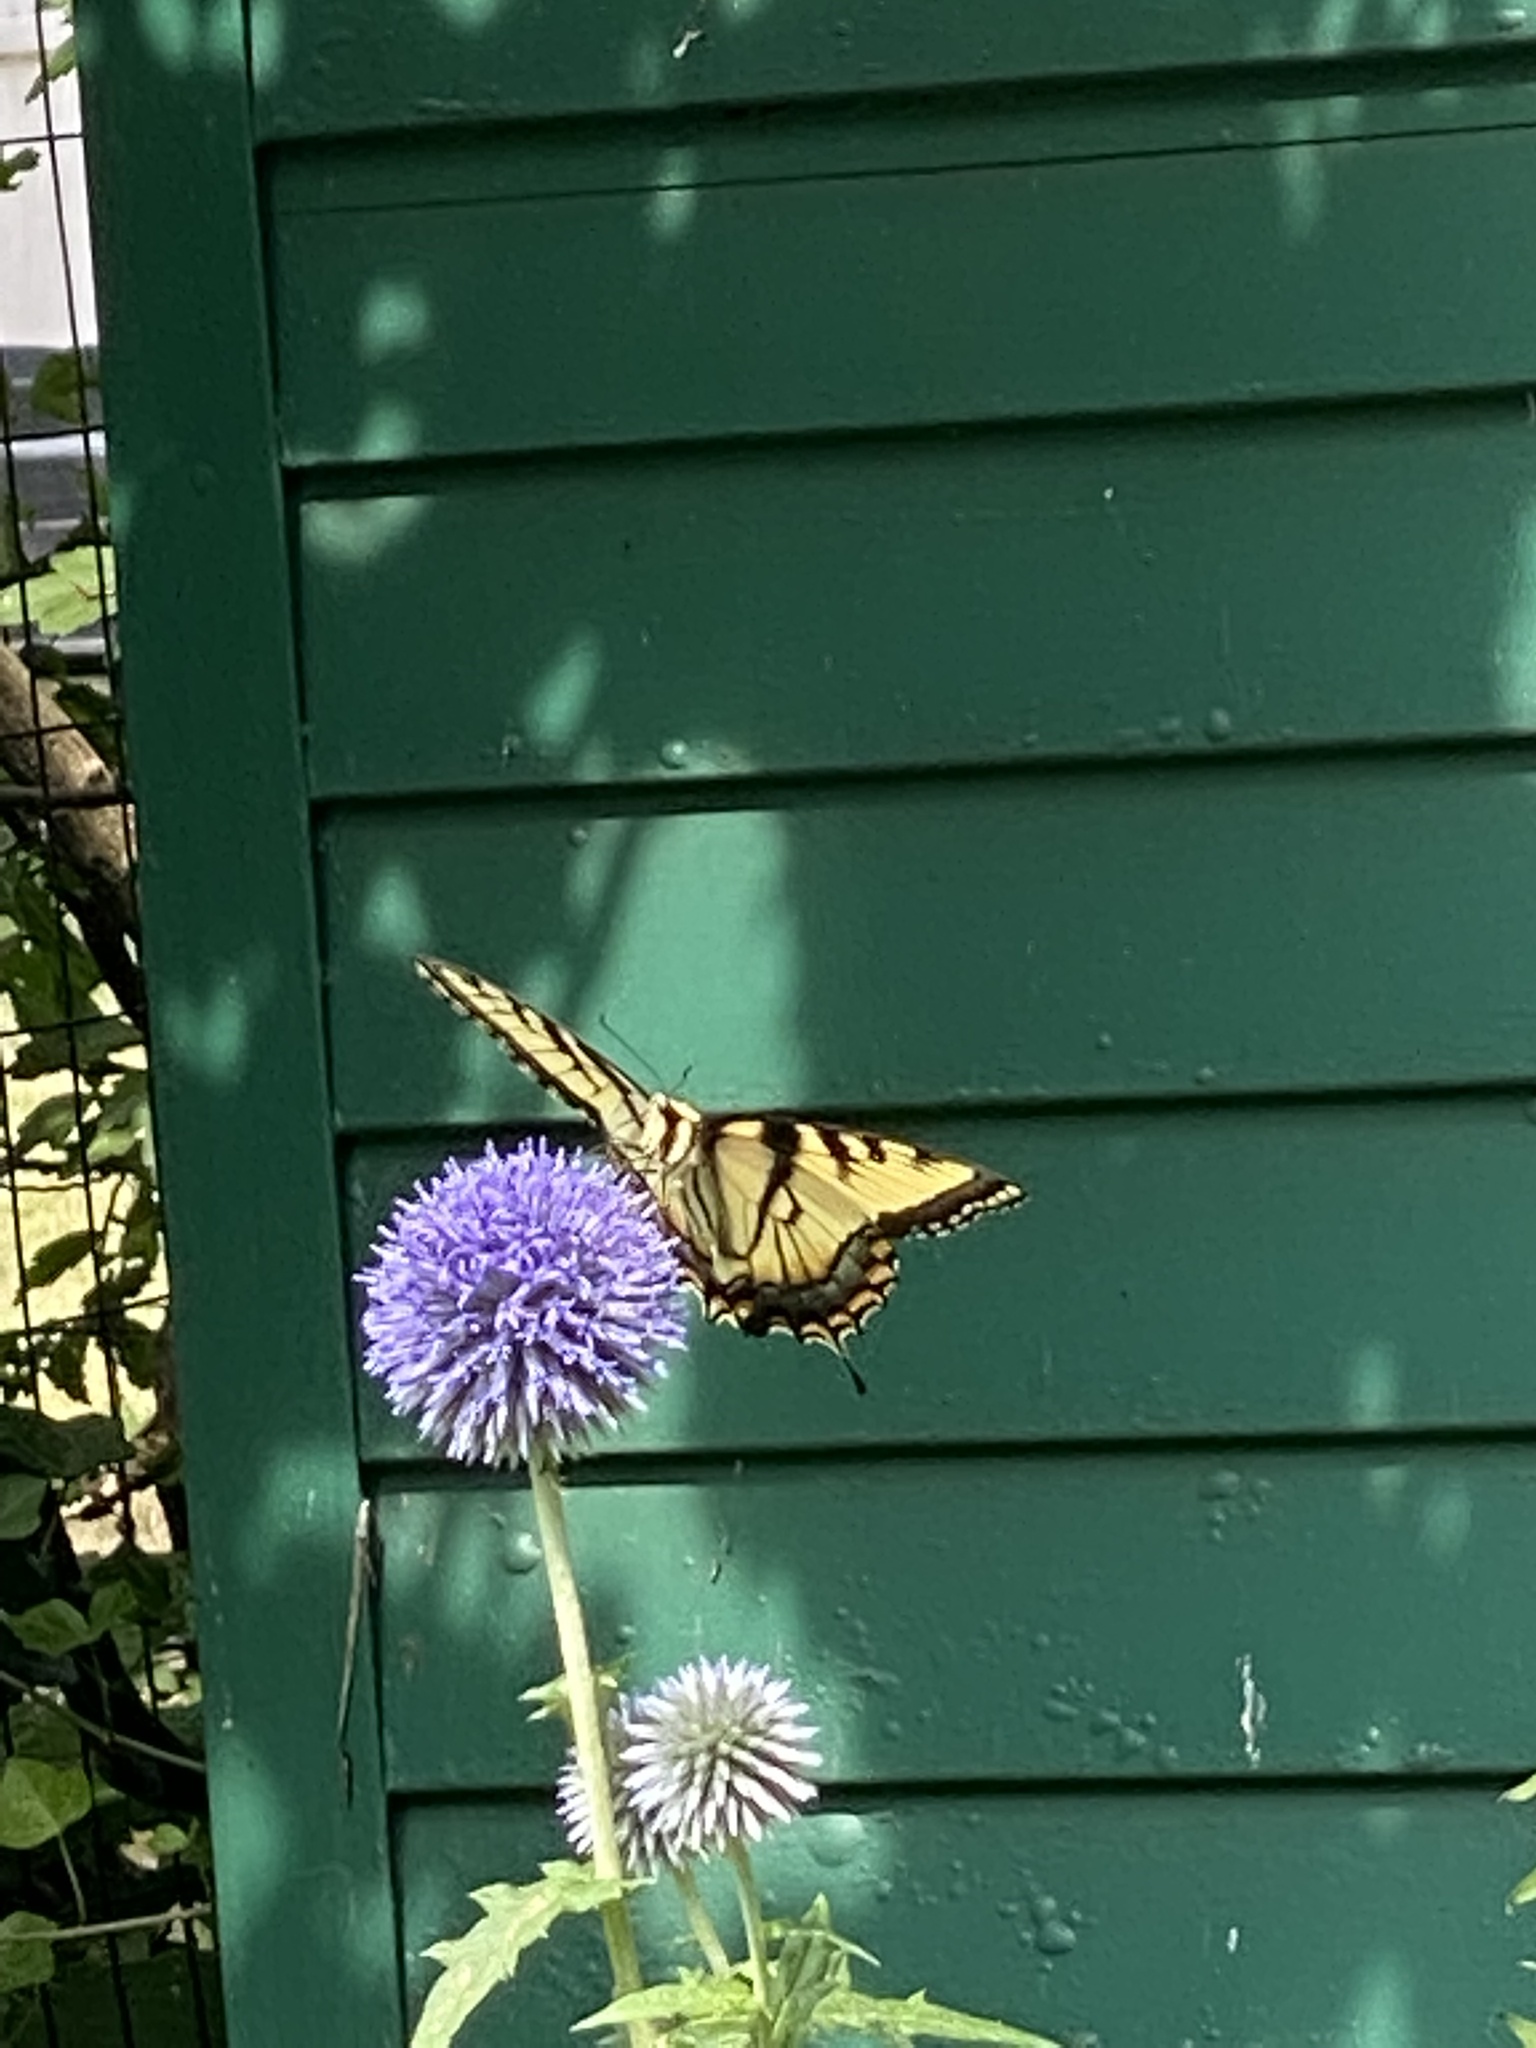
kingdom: Animalia
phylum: Arthropoda
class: Insecta
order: Lepidoptera
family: Papilionidae
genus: Papilio
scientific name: Papilio glaucus
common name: Tiger swallowtail
